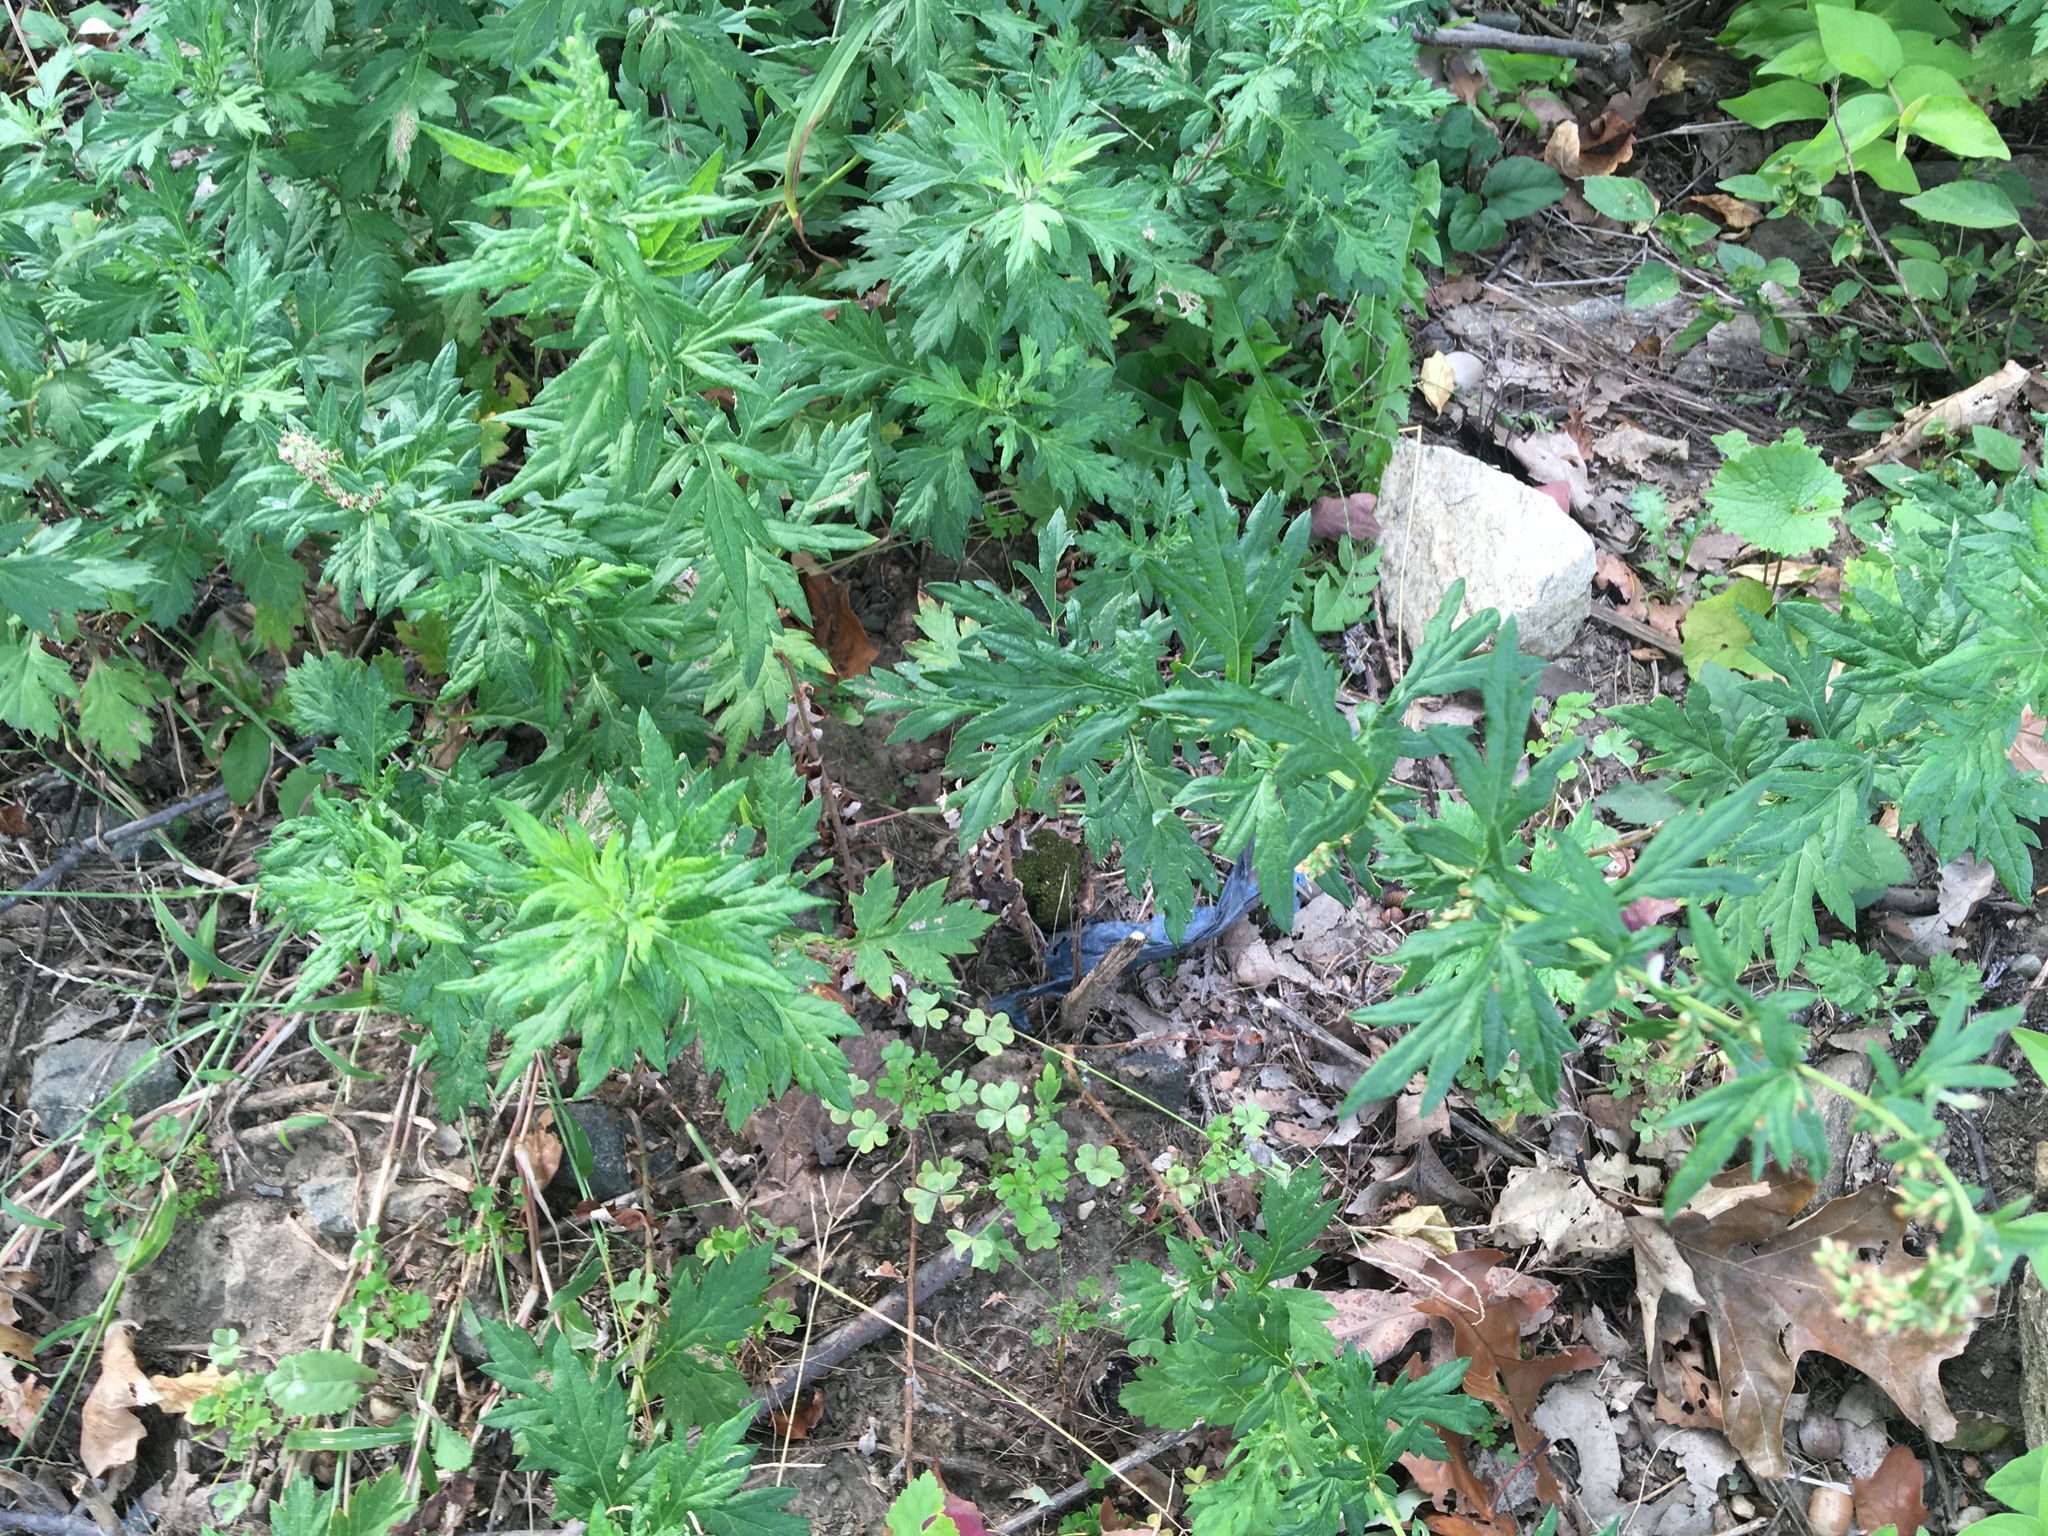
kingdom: Plantae
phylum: Tracheophyta
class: Magnoliopsida
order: Asterales
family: Asteraceae
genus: Artemisia
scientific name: Artemisia vulgaris
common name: Mugwort
